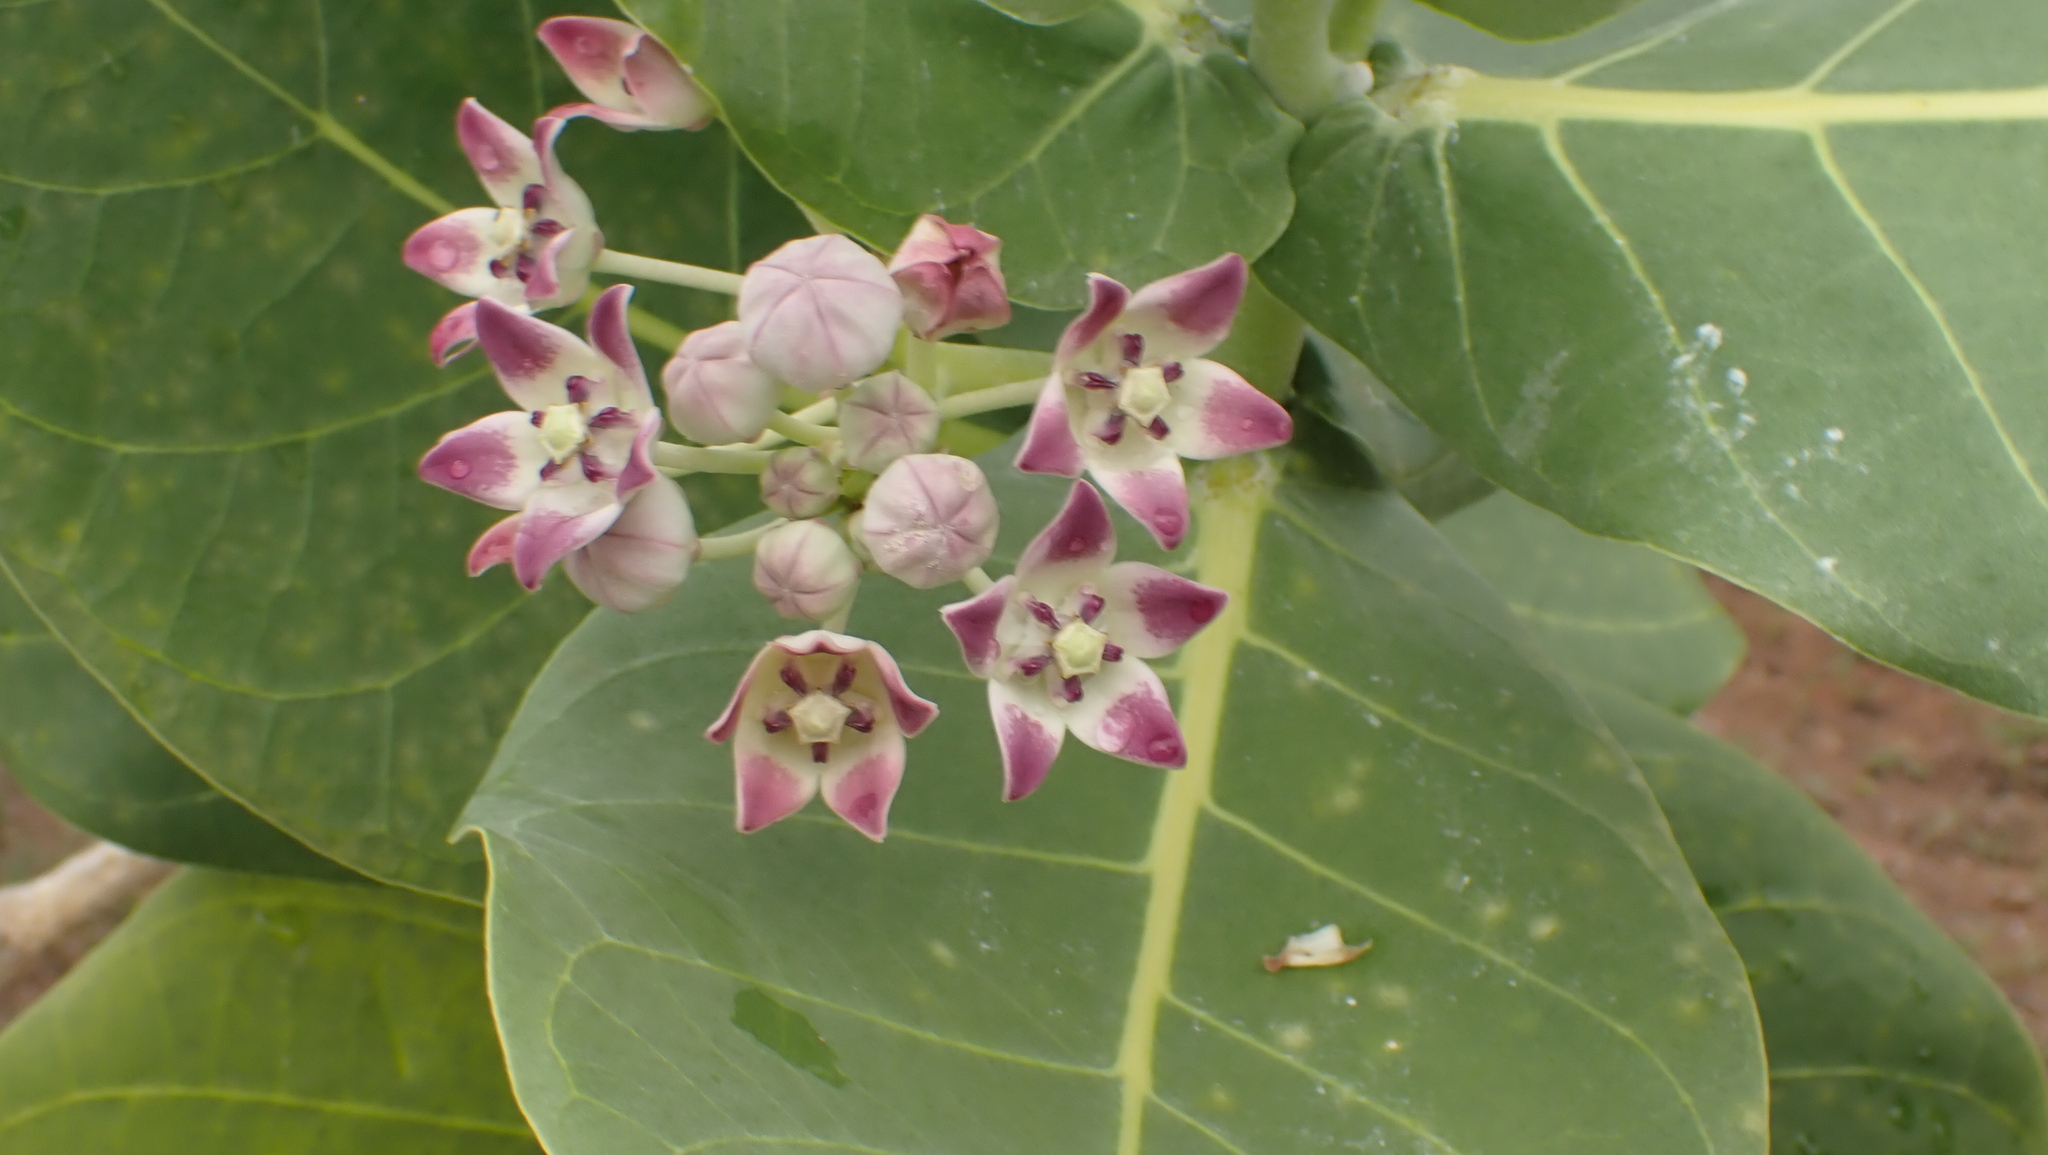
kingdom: Plantae
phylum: Tracheophyta
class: Magnoliopsida
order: Gentianales
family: Apocynaceae
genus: Calotropis
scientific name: Calotropis procera
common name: Roostertree
